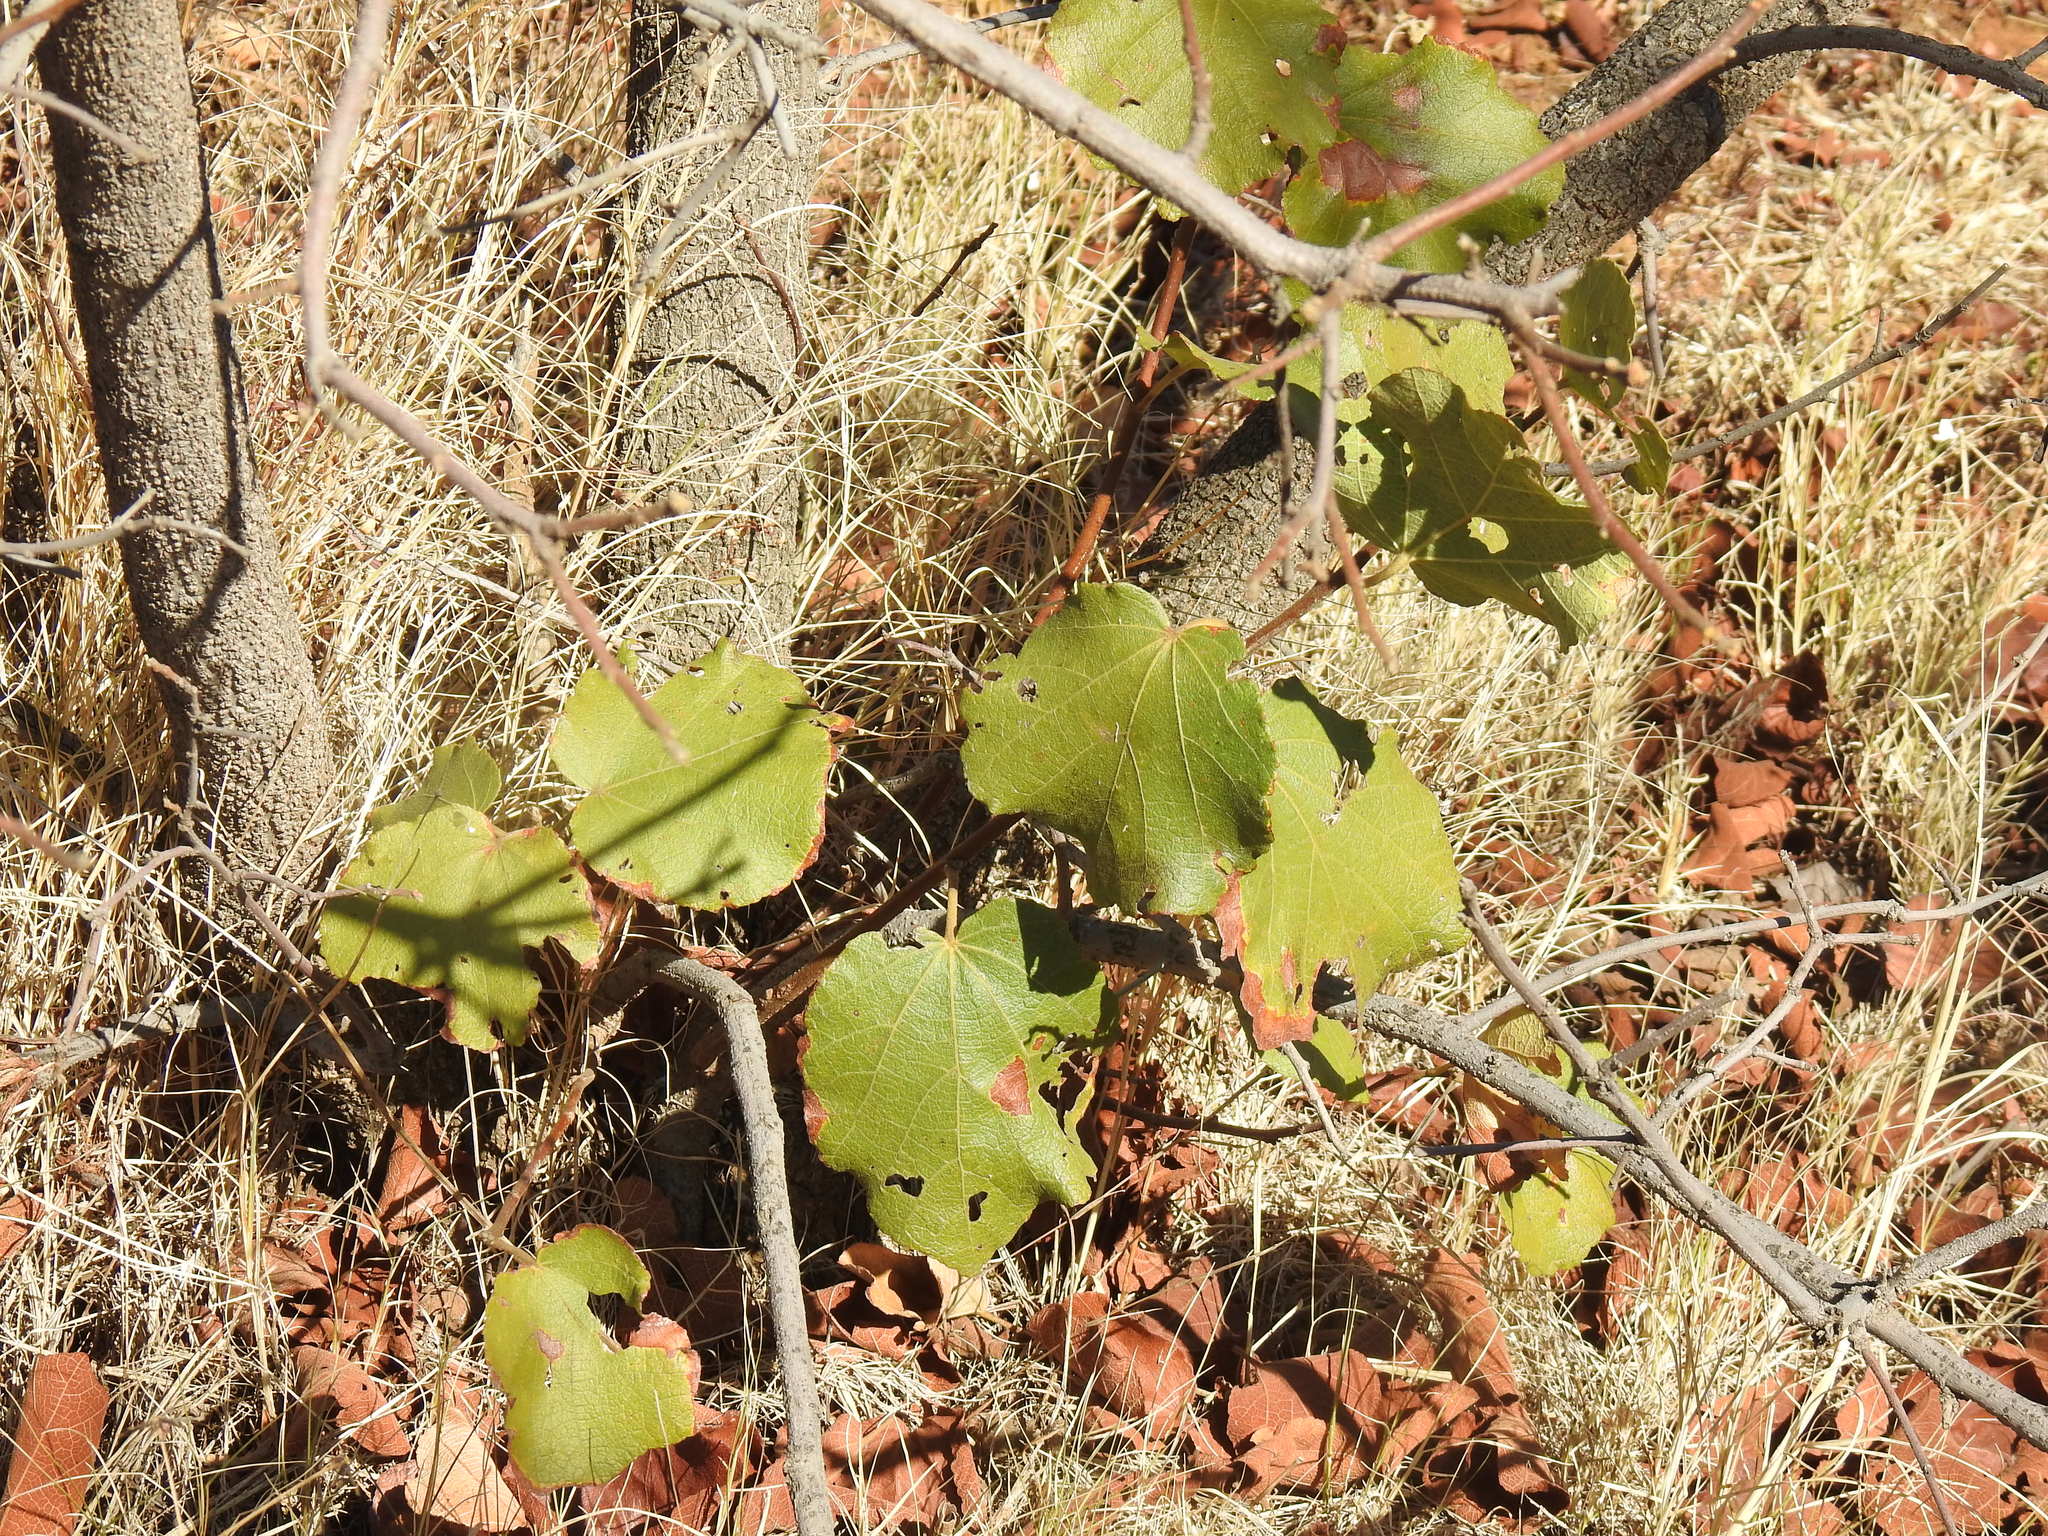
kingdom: Plantae
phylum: Tracheophyta
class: Magnoliopsida
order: Malvales
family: Malvaceae
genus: Dombeya
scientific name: Dombeya rotundifolia
